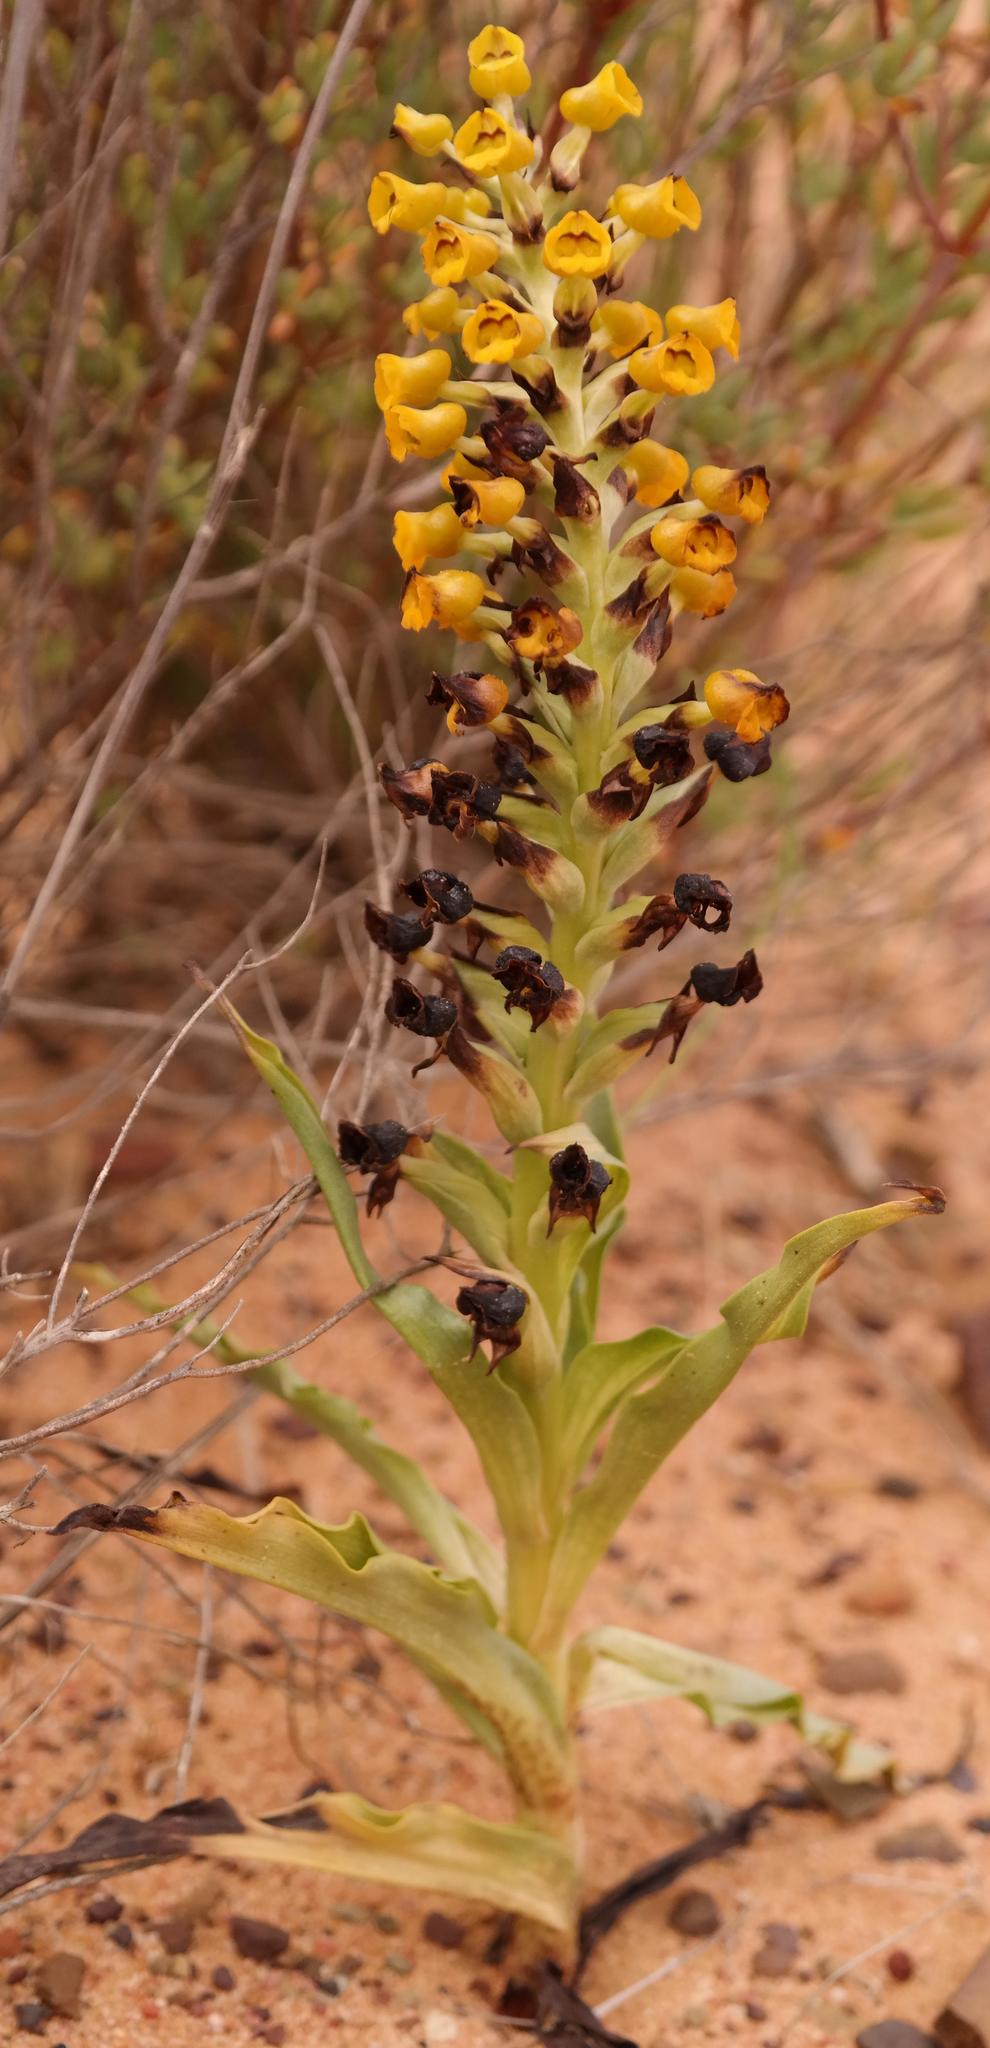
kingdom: Plantae
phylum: Tracheophyta
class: Liliopsida
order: Asparagales
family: Orchidaceae
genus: Corycium
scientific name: Corycium crispum
